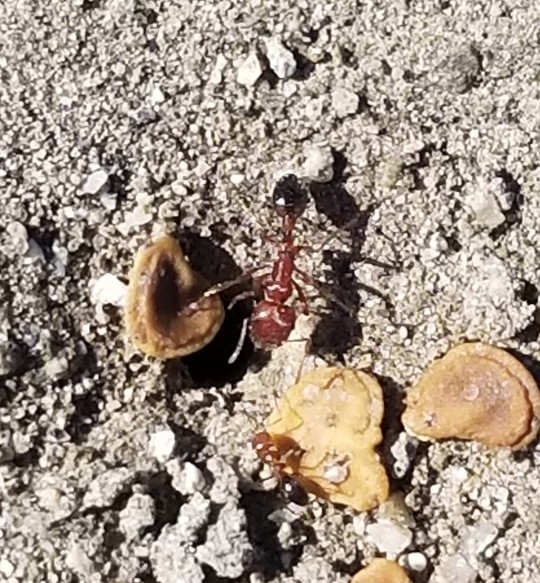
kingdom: Animalia
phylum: Arthropoda
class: Insecta
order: Hymenoptera
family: Formicidae
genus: Pogonomyrmex
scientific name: Pogonomyrmex californicus
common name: California harvester ant
